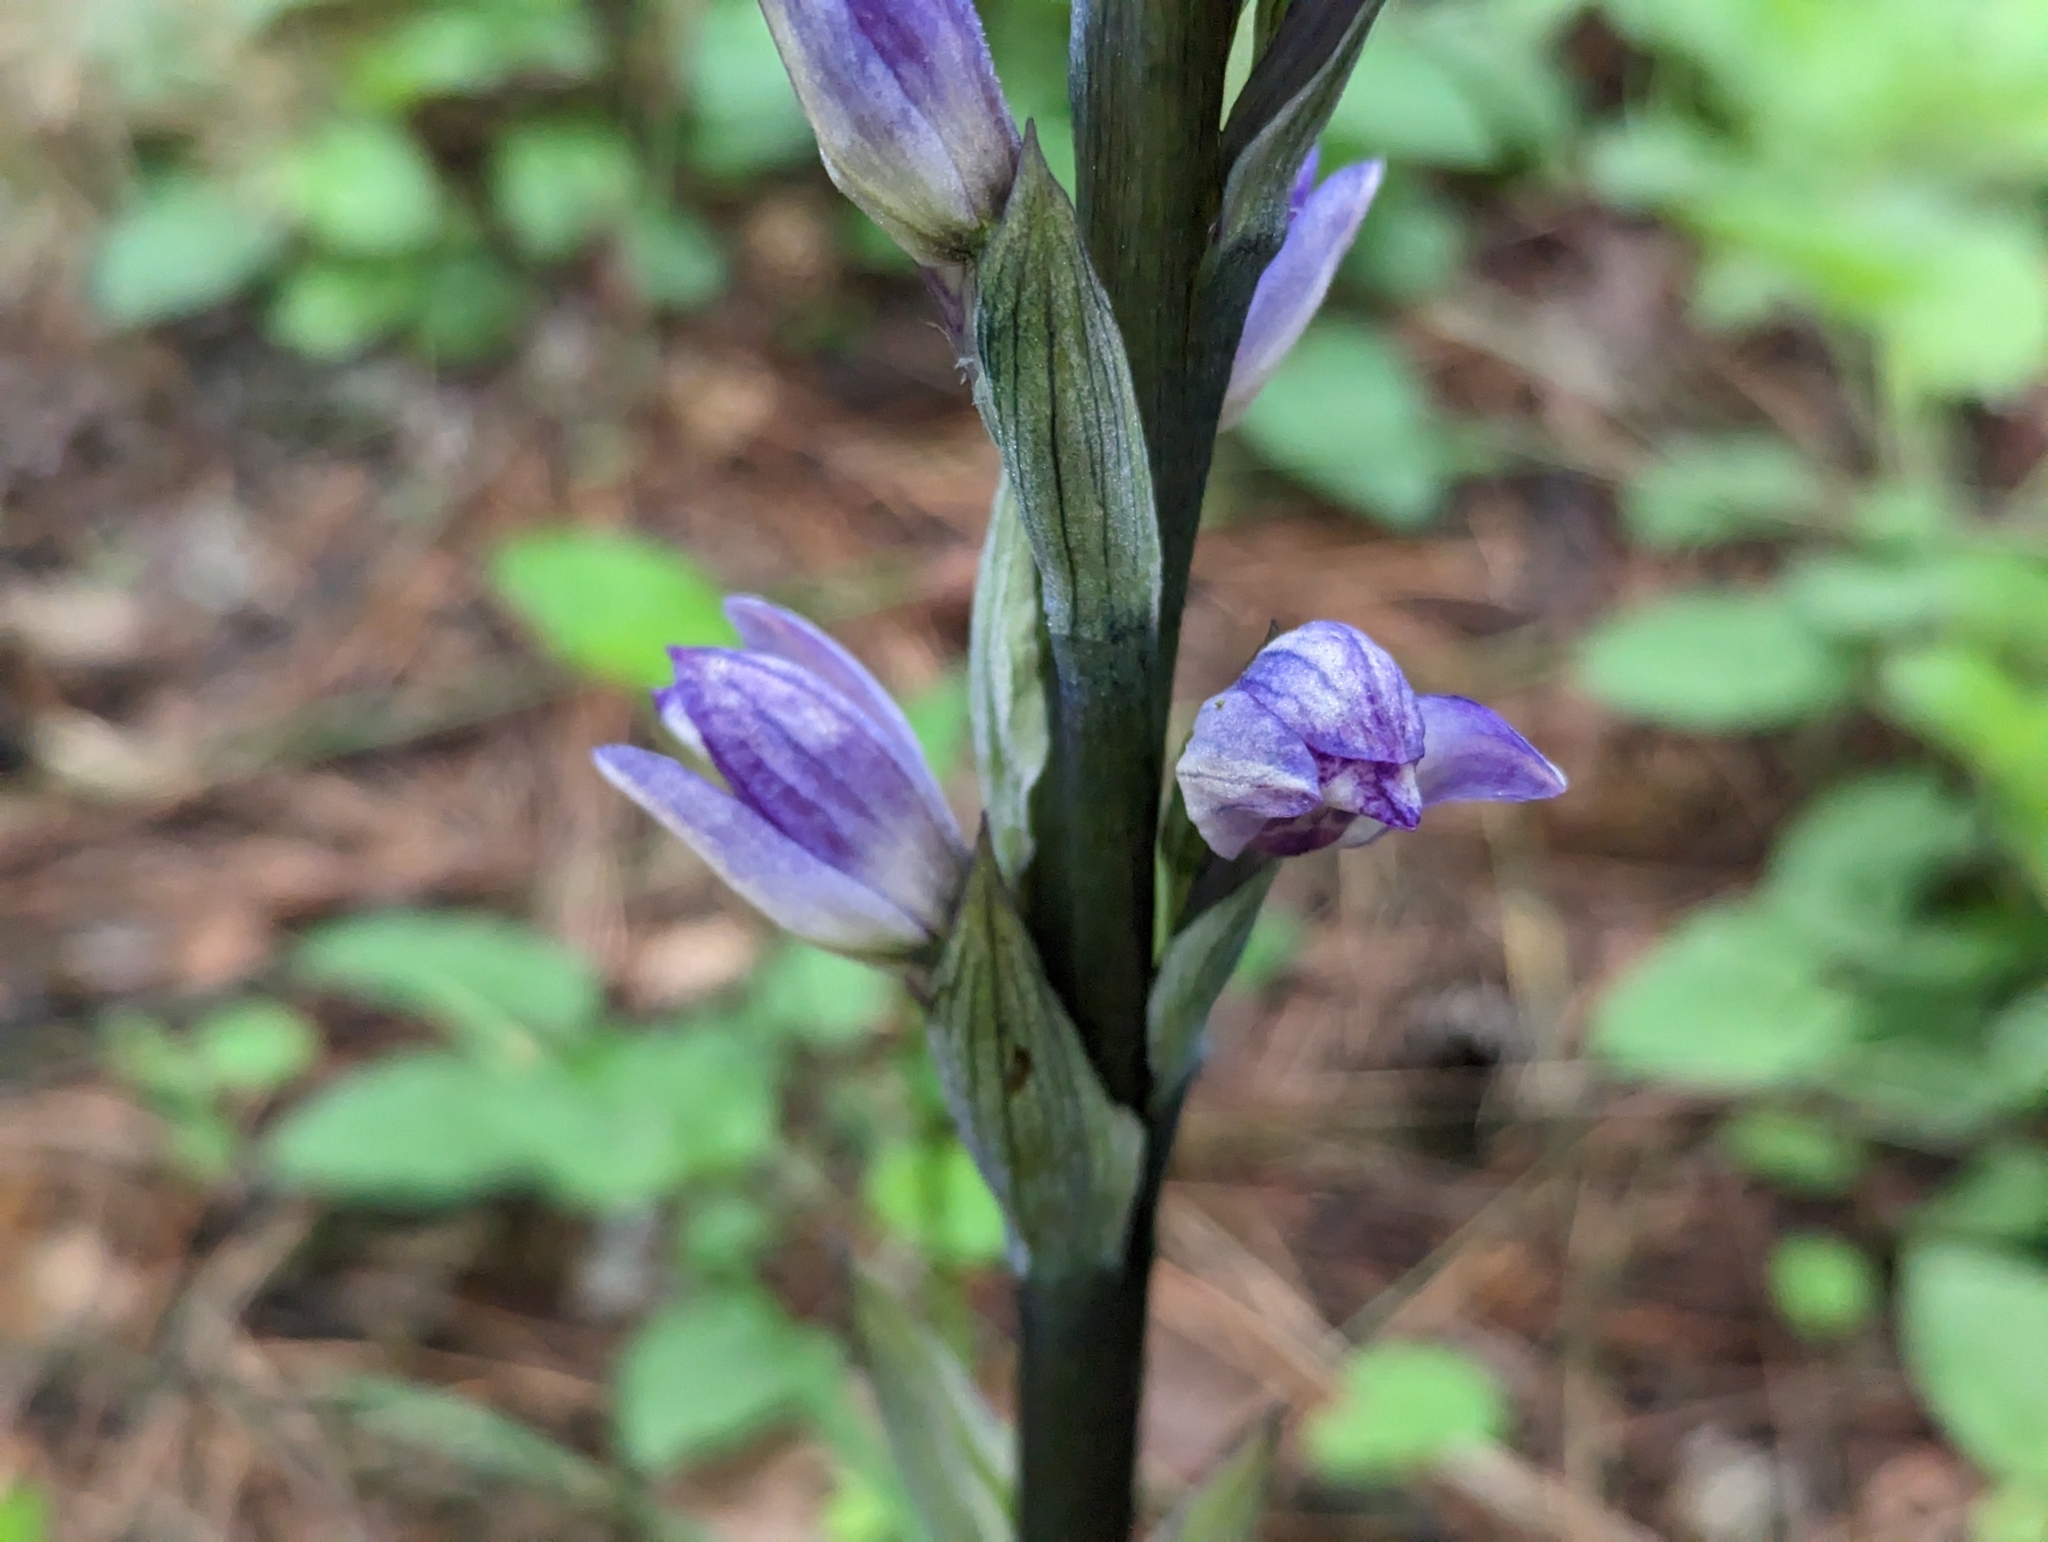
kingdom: Plantae
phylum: Tracheophyta
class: Liliopsida
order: Asparagales
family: Orchidaceae
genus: Limodorum
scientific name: Limodorum abortivum
